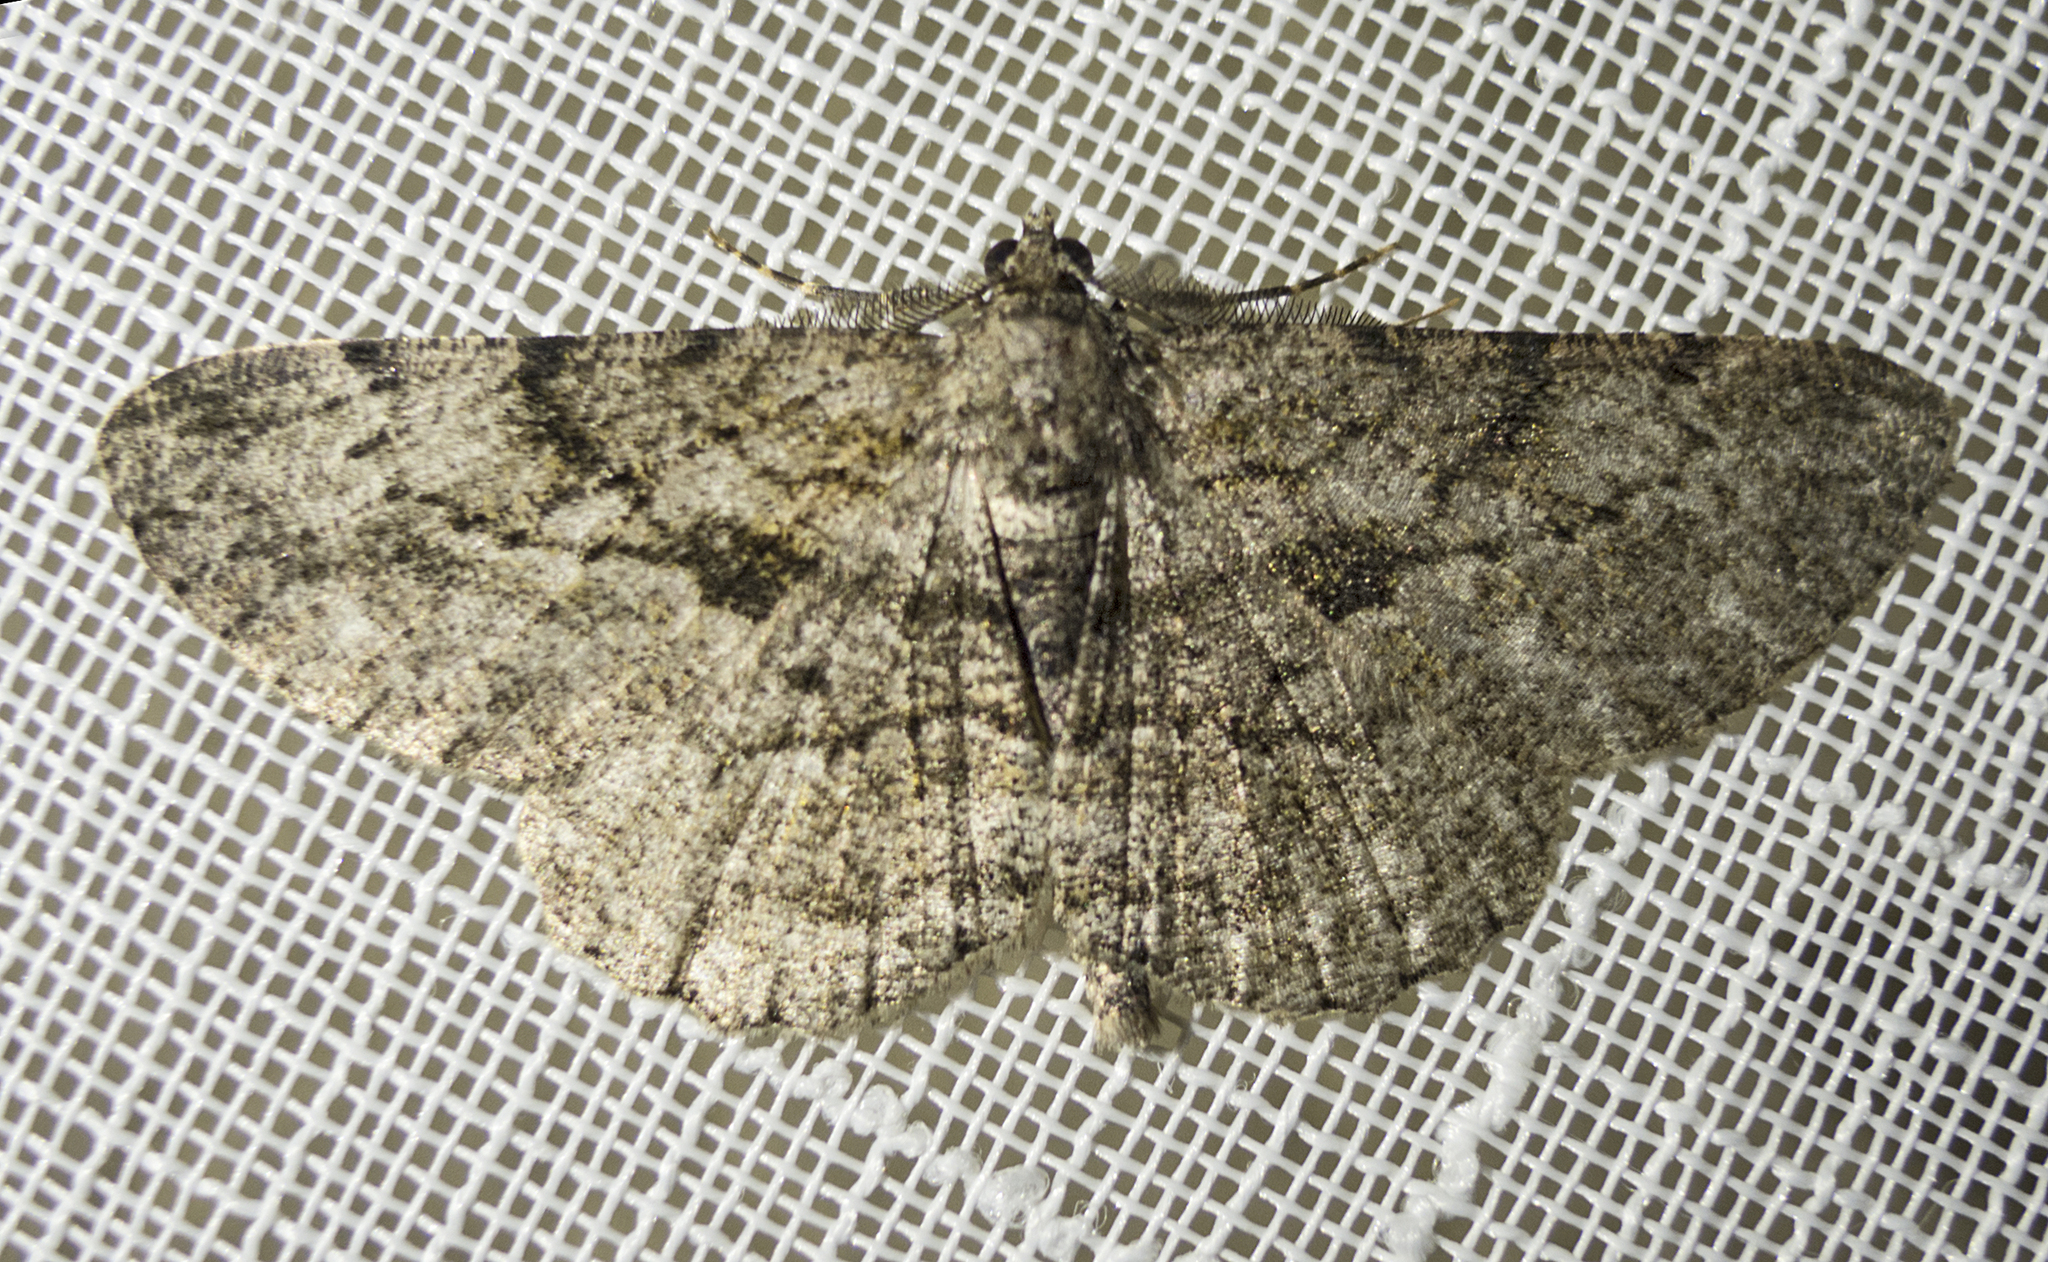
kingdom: Animalia
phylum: Arthropoda
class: Insecta
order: Lepidoptera
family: Geometridae
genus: Peribatodes
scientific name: Peribatodes rhomboidaria
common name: Willow beauty
